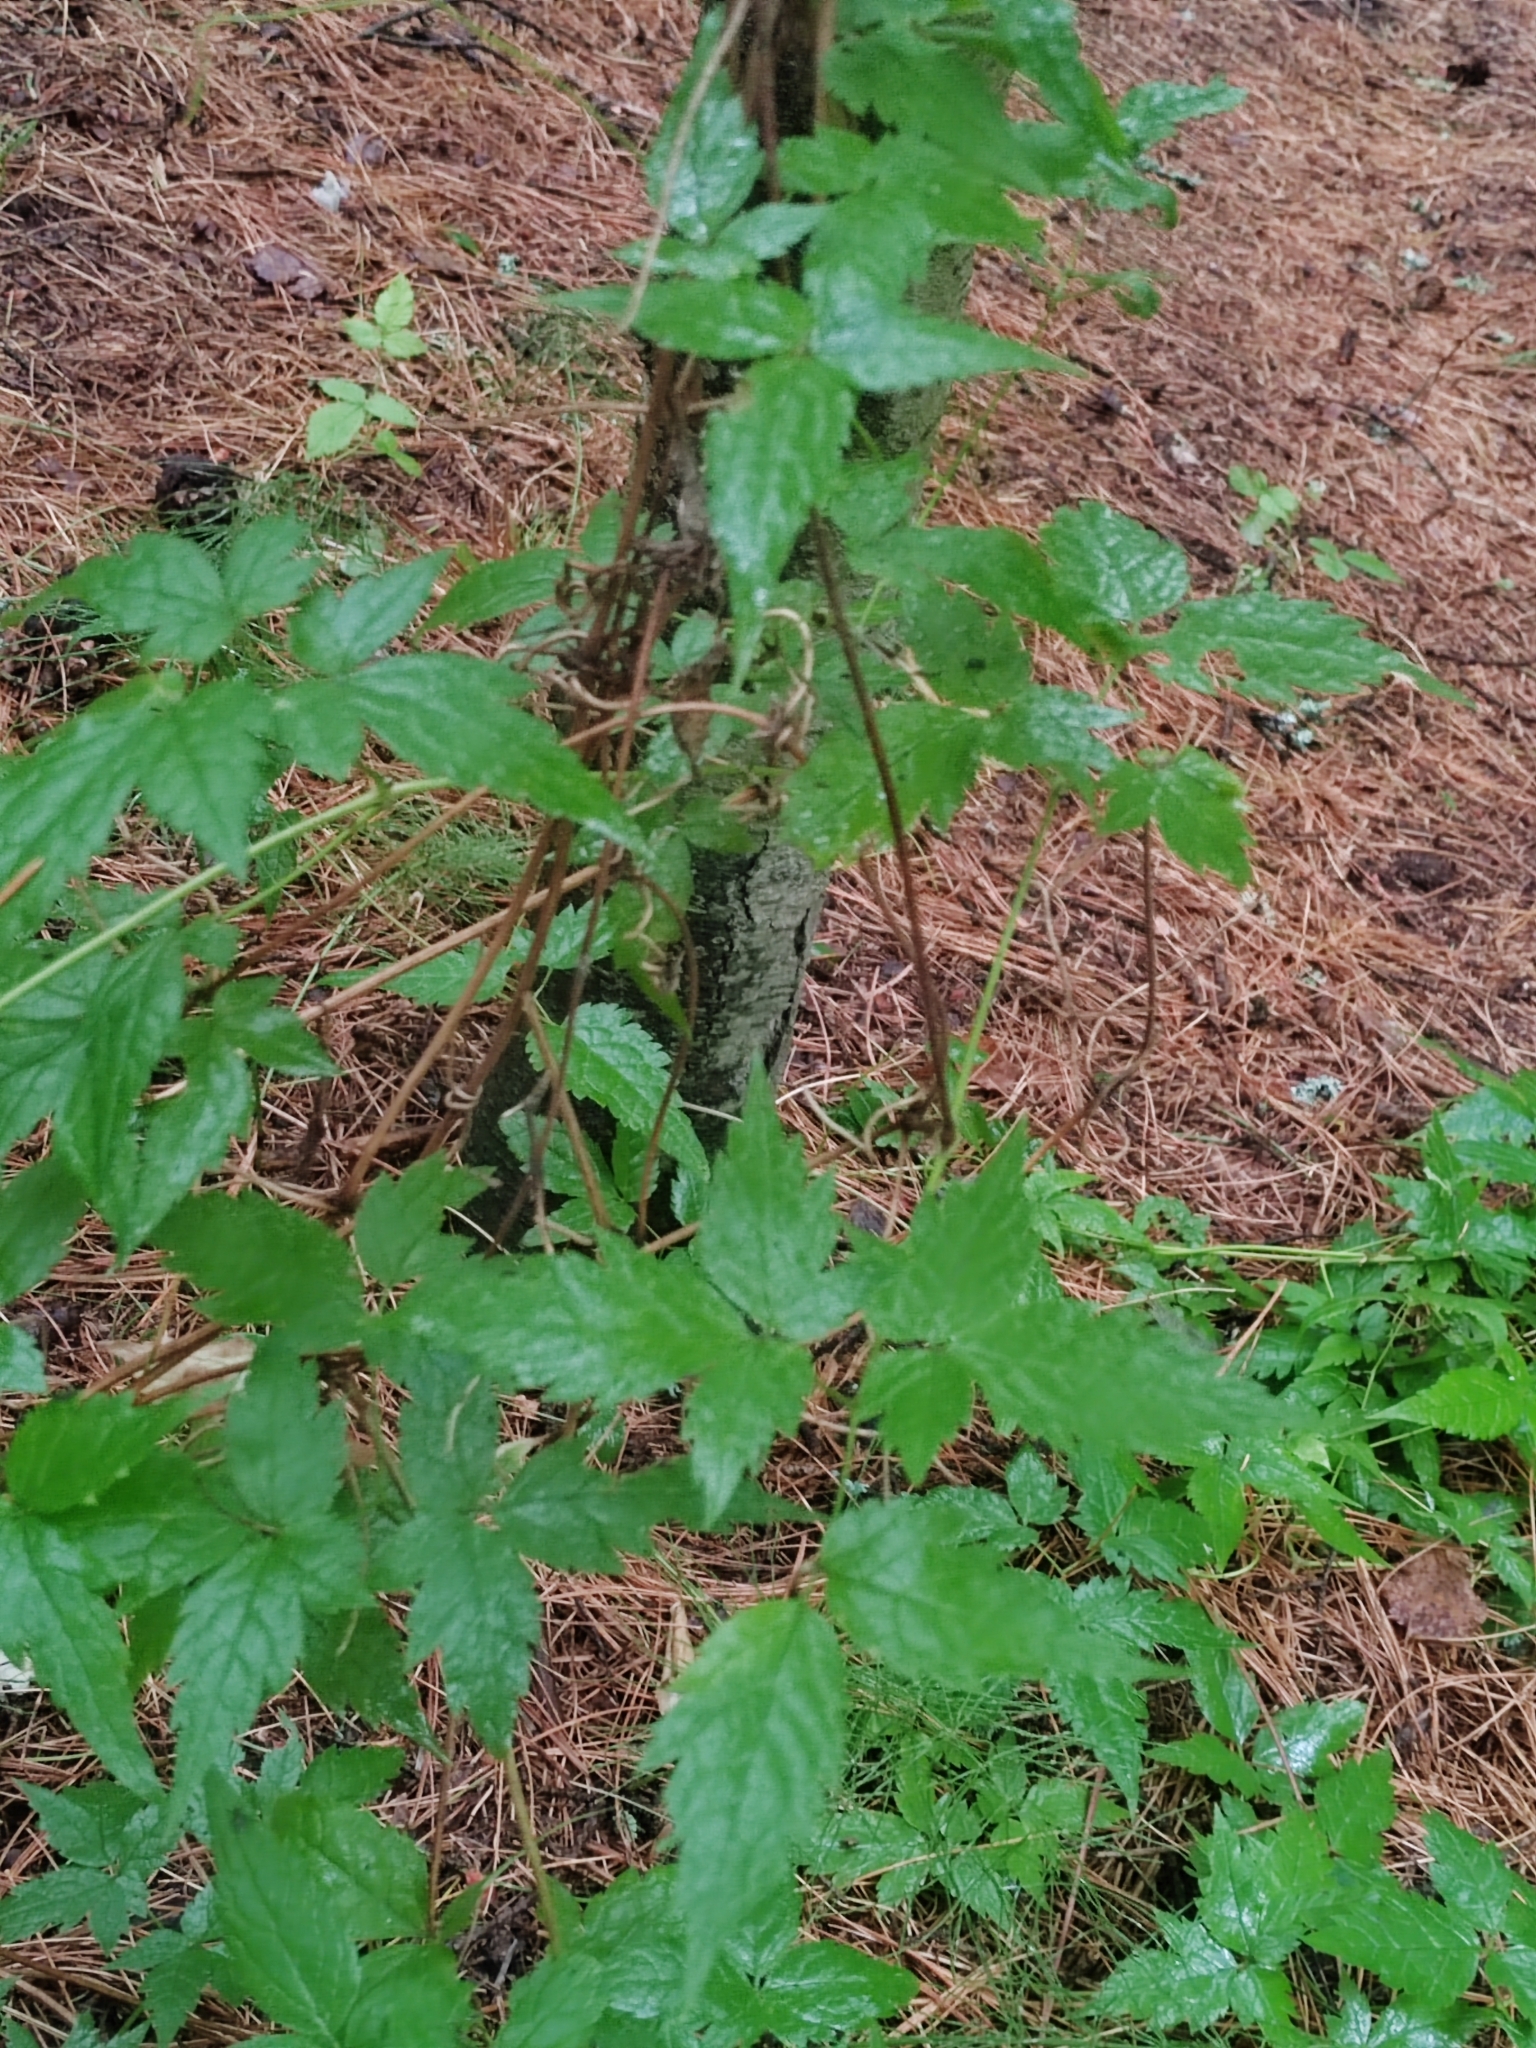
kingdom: Plantae
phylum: Tracheophyta
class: Magnoliopsida
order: Ranunculales
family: Ranunculaceae
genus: Clematis
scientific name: Clematis sibirica
